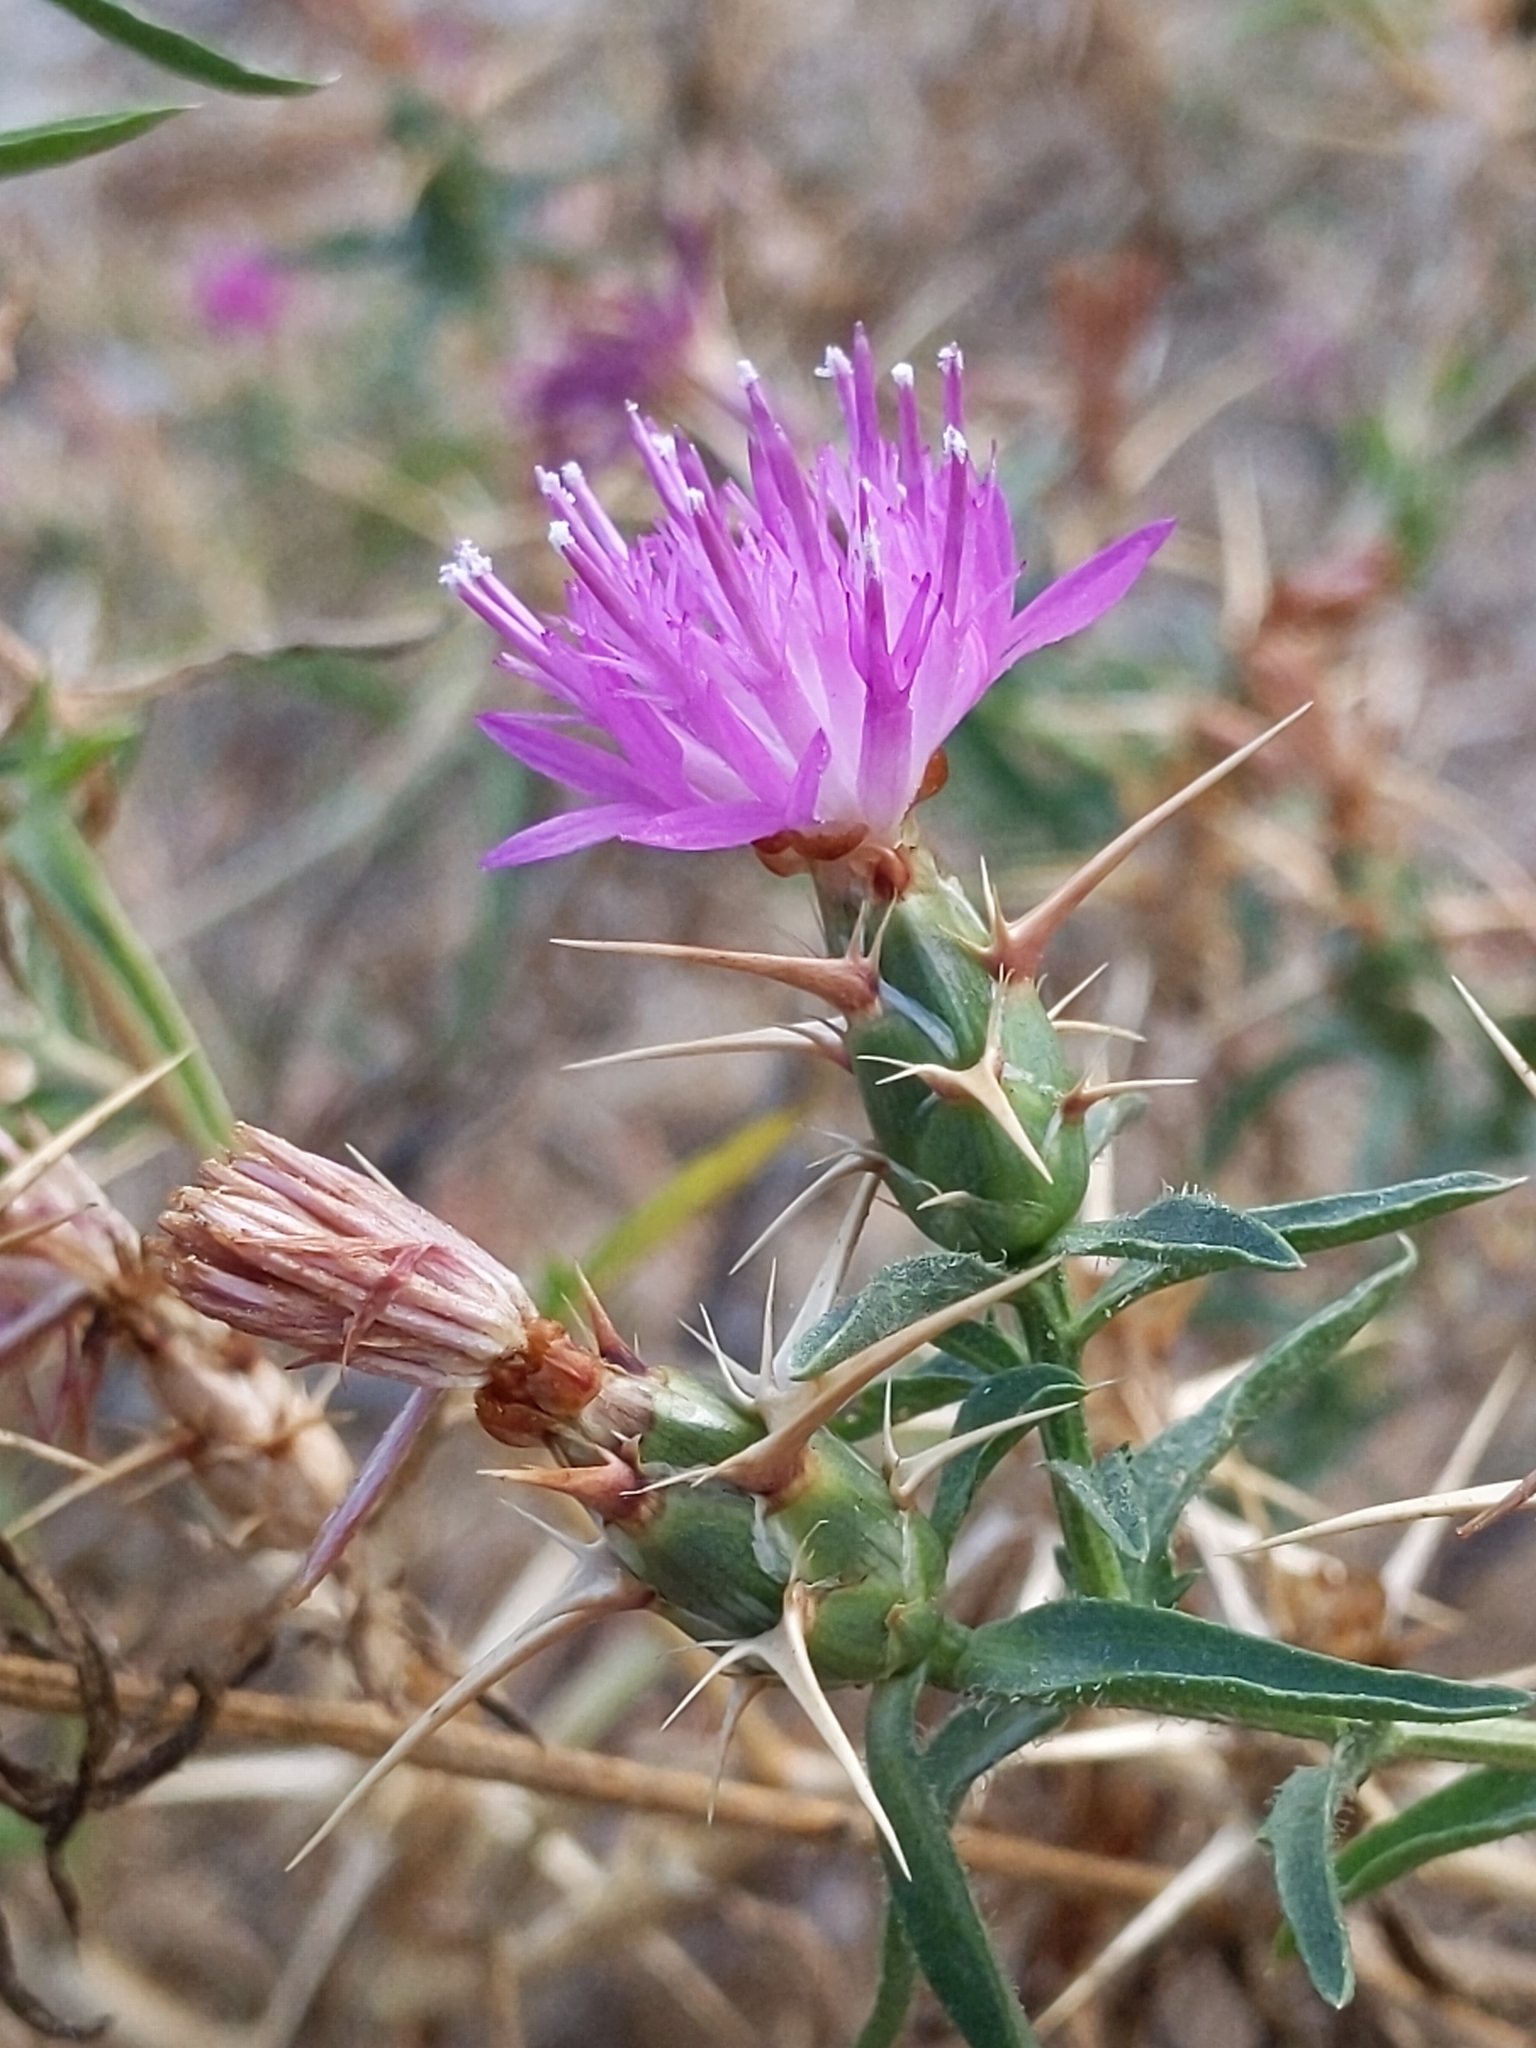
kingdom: Plantae
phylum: Tracheophyta
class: Magnoliopsida
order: Asterales
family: Asteraceae
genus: Centaurea
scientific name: Centaurea calcitrapa
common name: Red star-thistle
